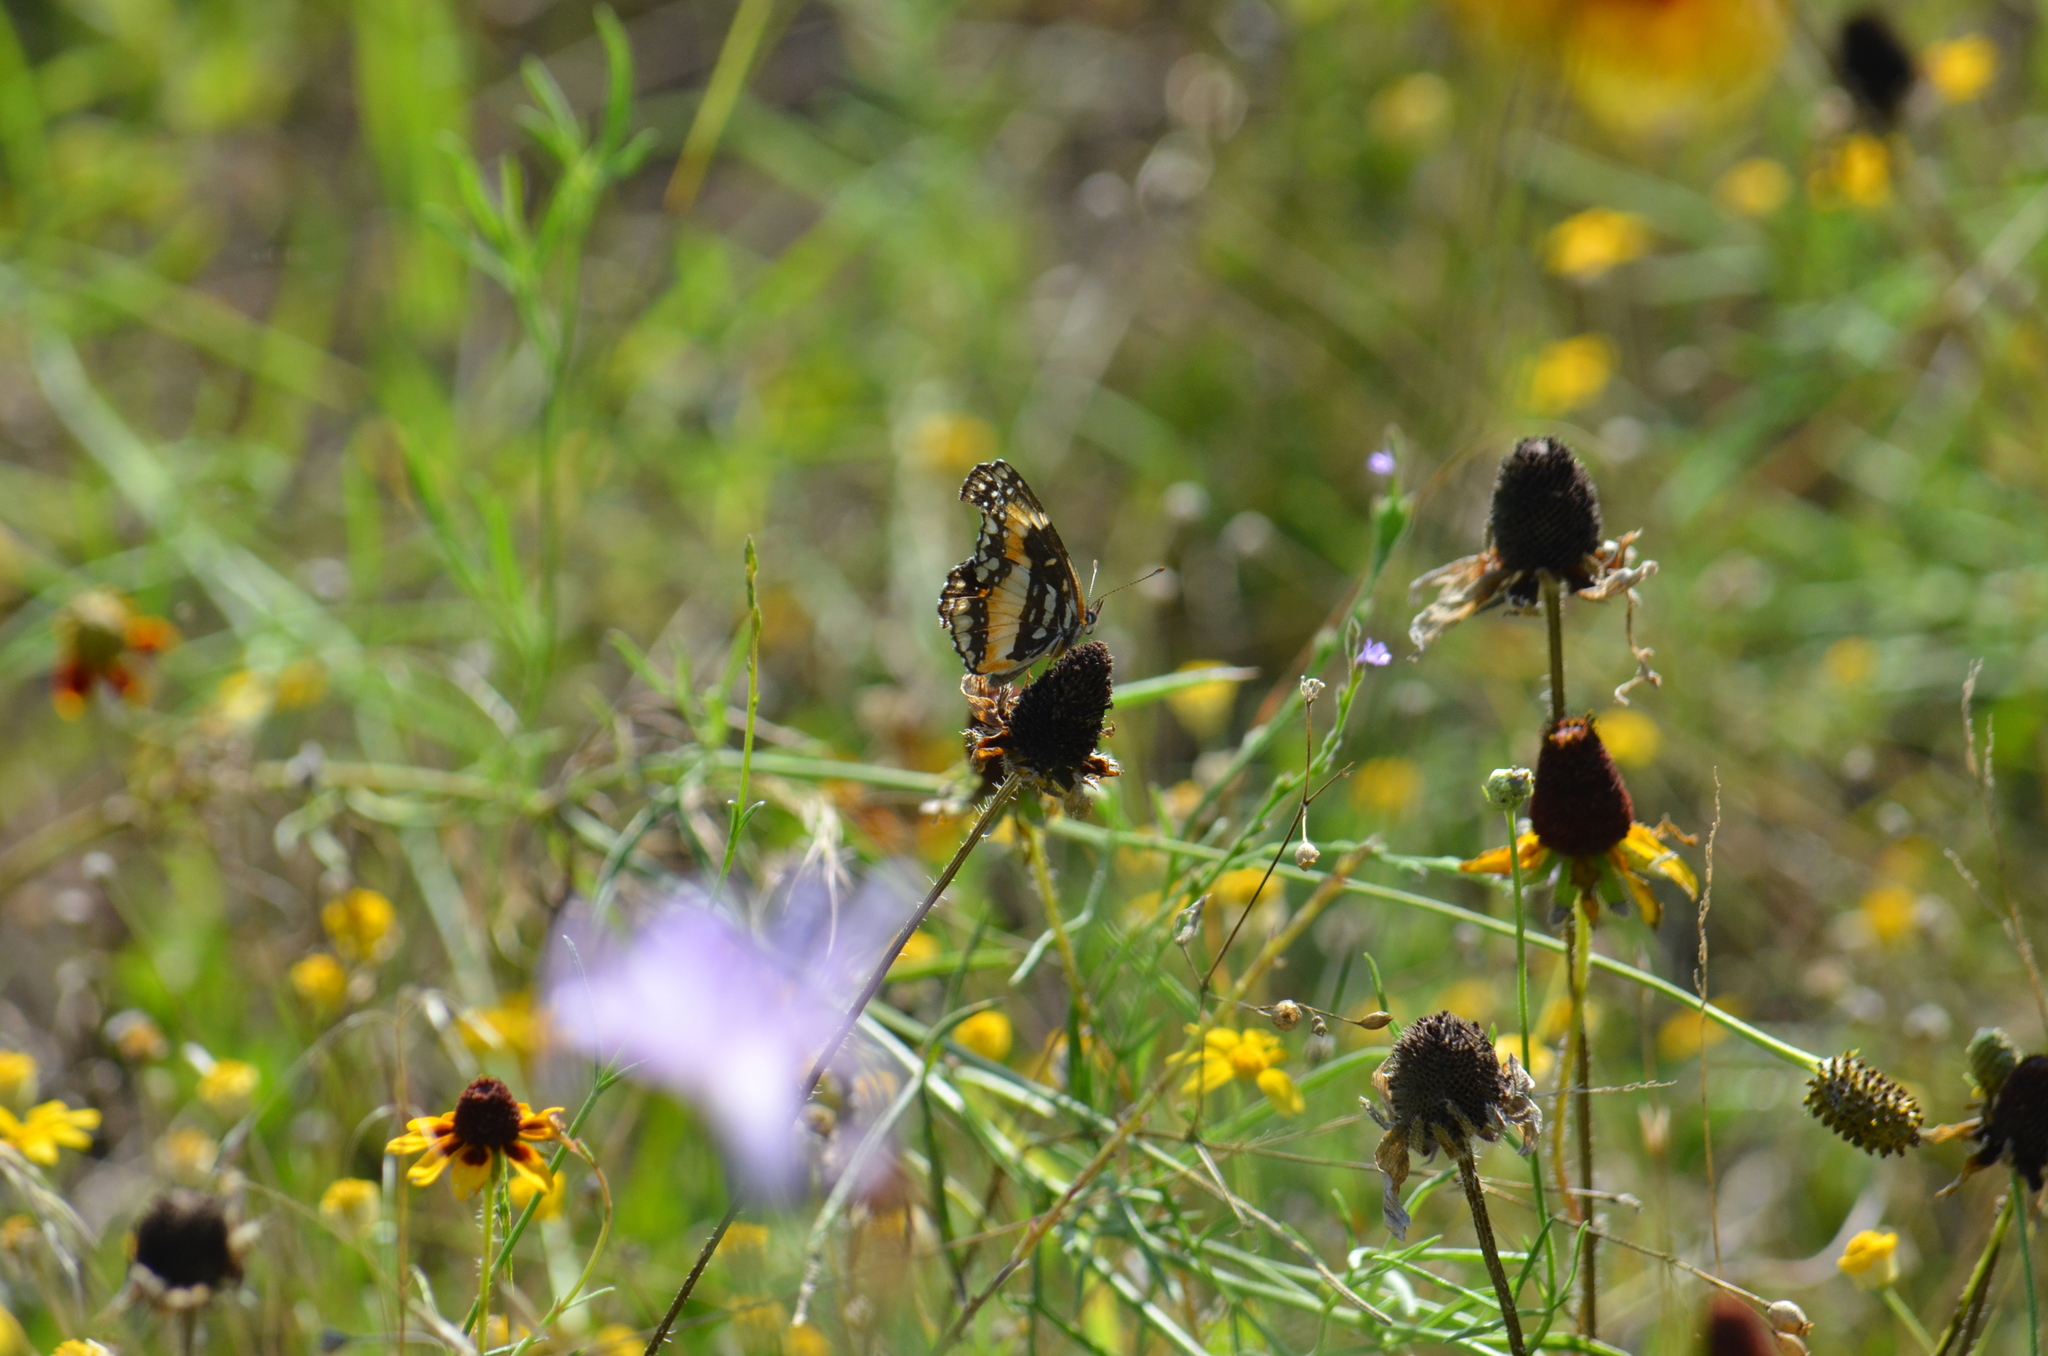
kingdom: Animalia
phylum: Arthropoda
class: Insecta
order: Lepidoptera
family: Nymphalidae
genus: Chlosyne
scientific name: Chlosyne lacinia
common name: Bordered patch
